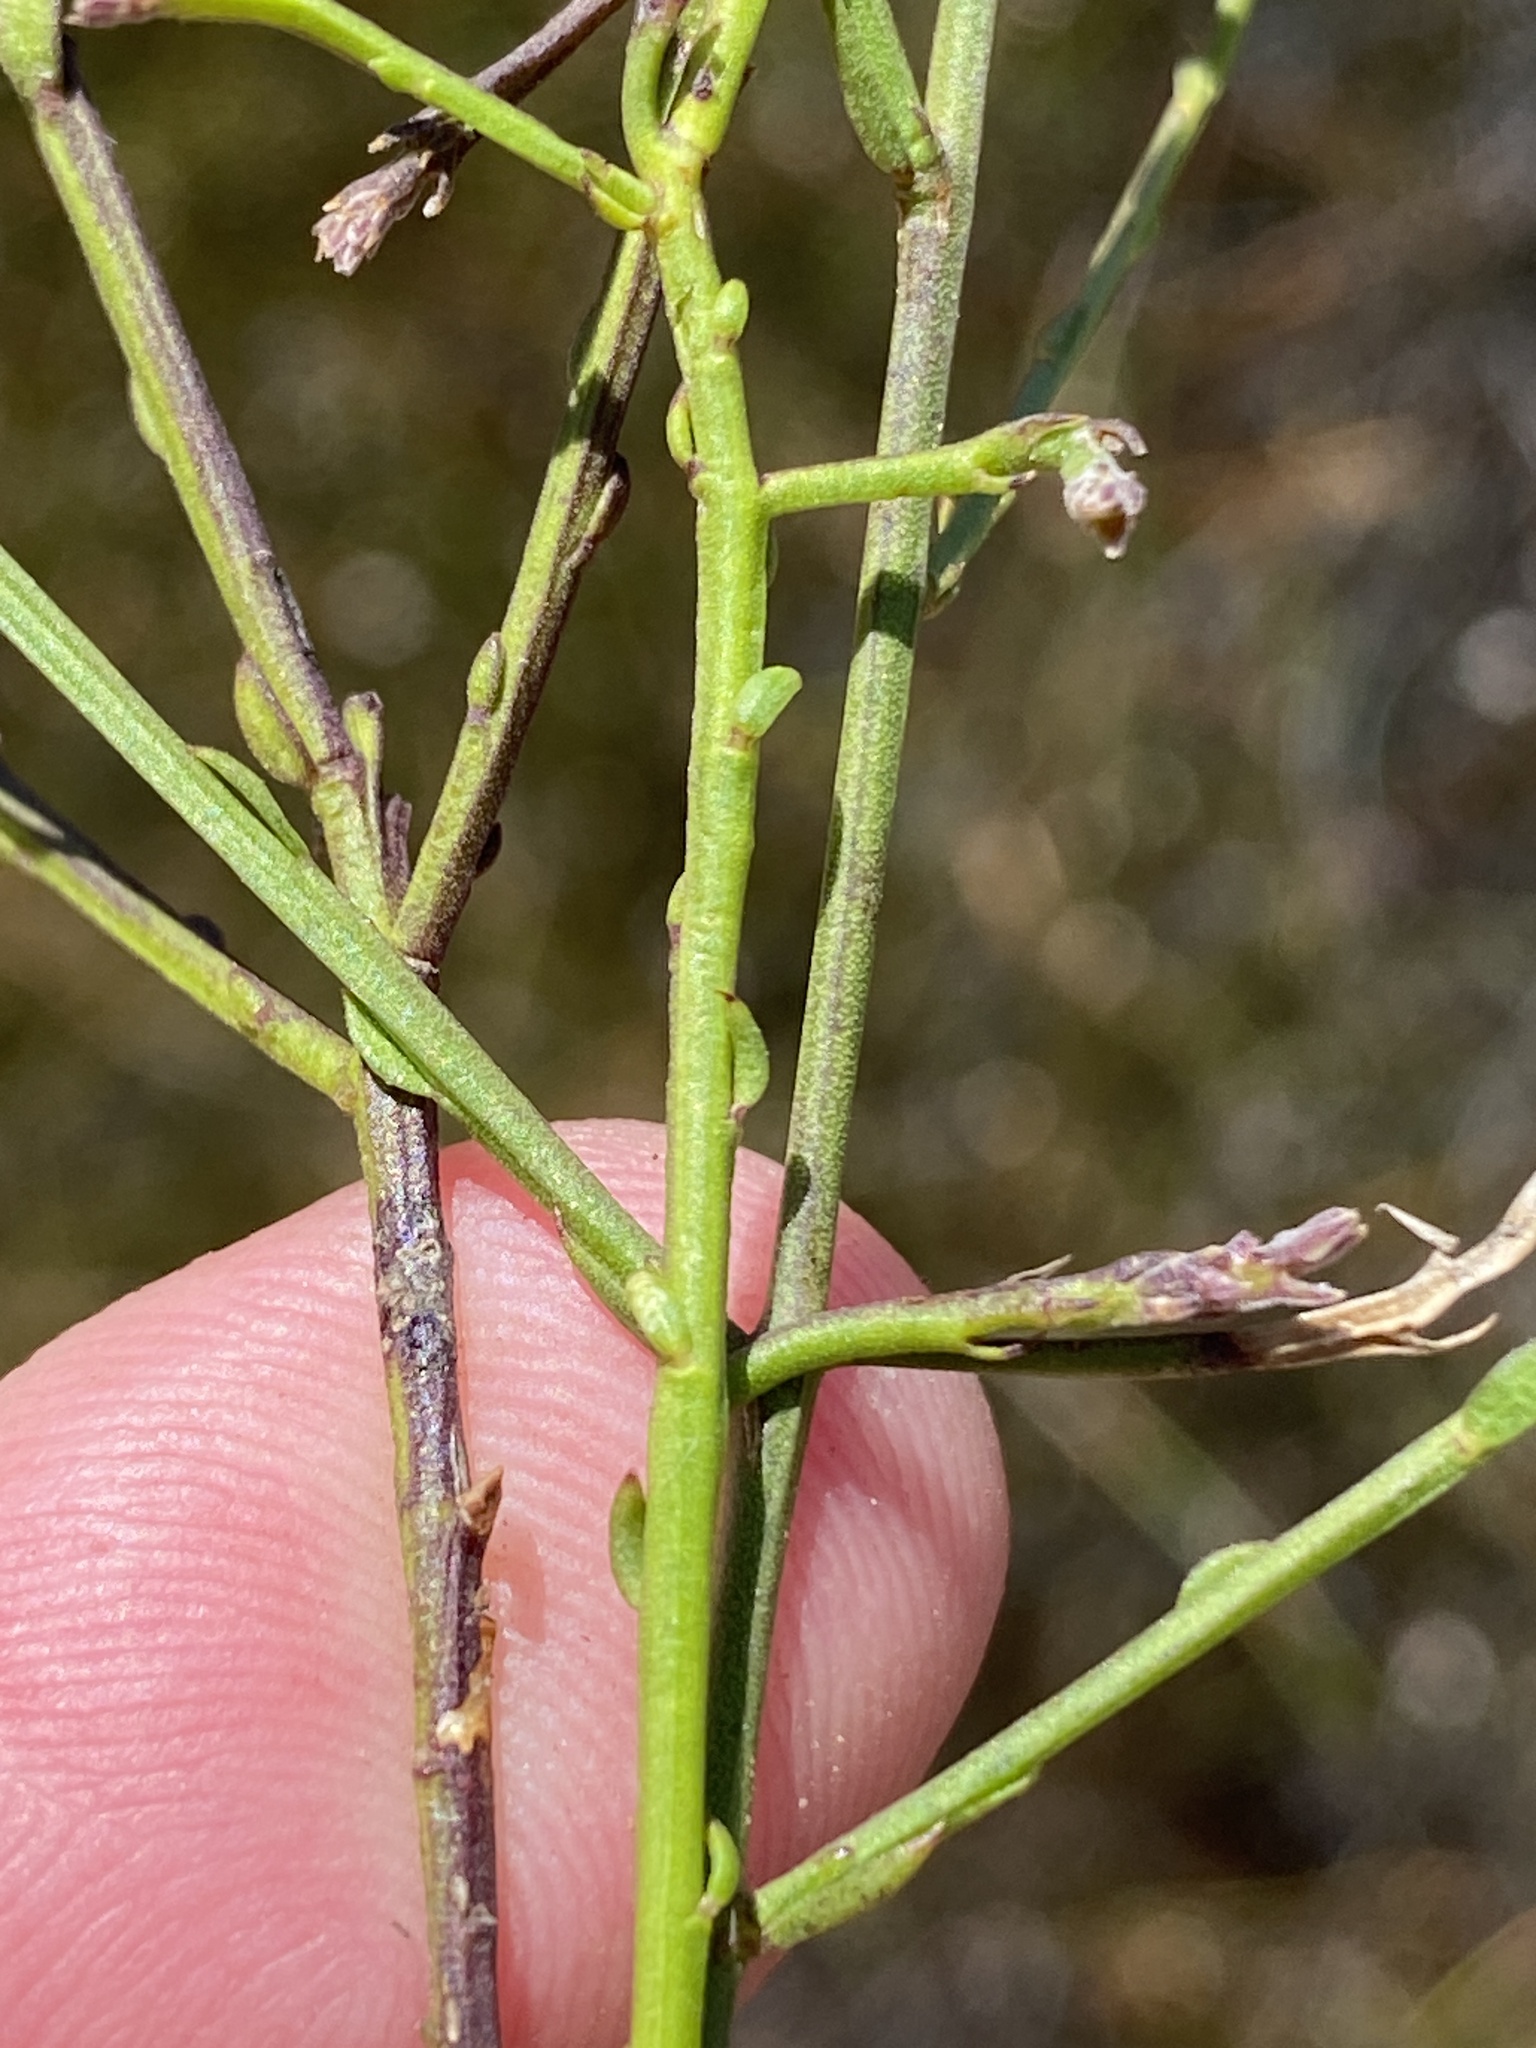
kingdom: Plantae
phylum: Tracheophyta
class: Magnoliopsida
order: Fabales
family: Polygalaceae
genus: Polygala
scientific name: Polygala brachyphylla
